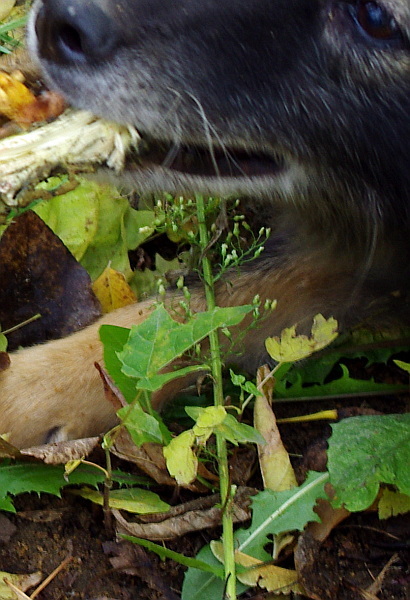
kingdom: Plantae
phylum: Tracheophyta
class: Magnoliopsida
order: Asterales
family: Asteraceae
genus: Erigeron
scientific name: Erigeron canadensis
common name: Canadian fleabane
